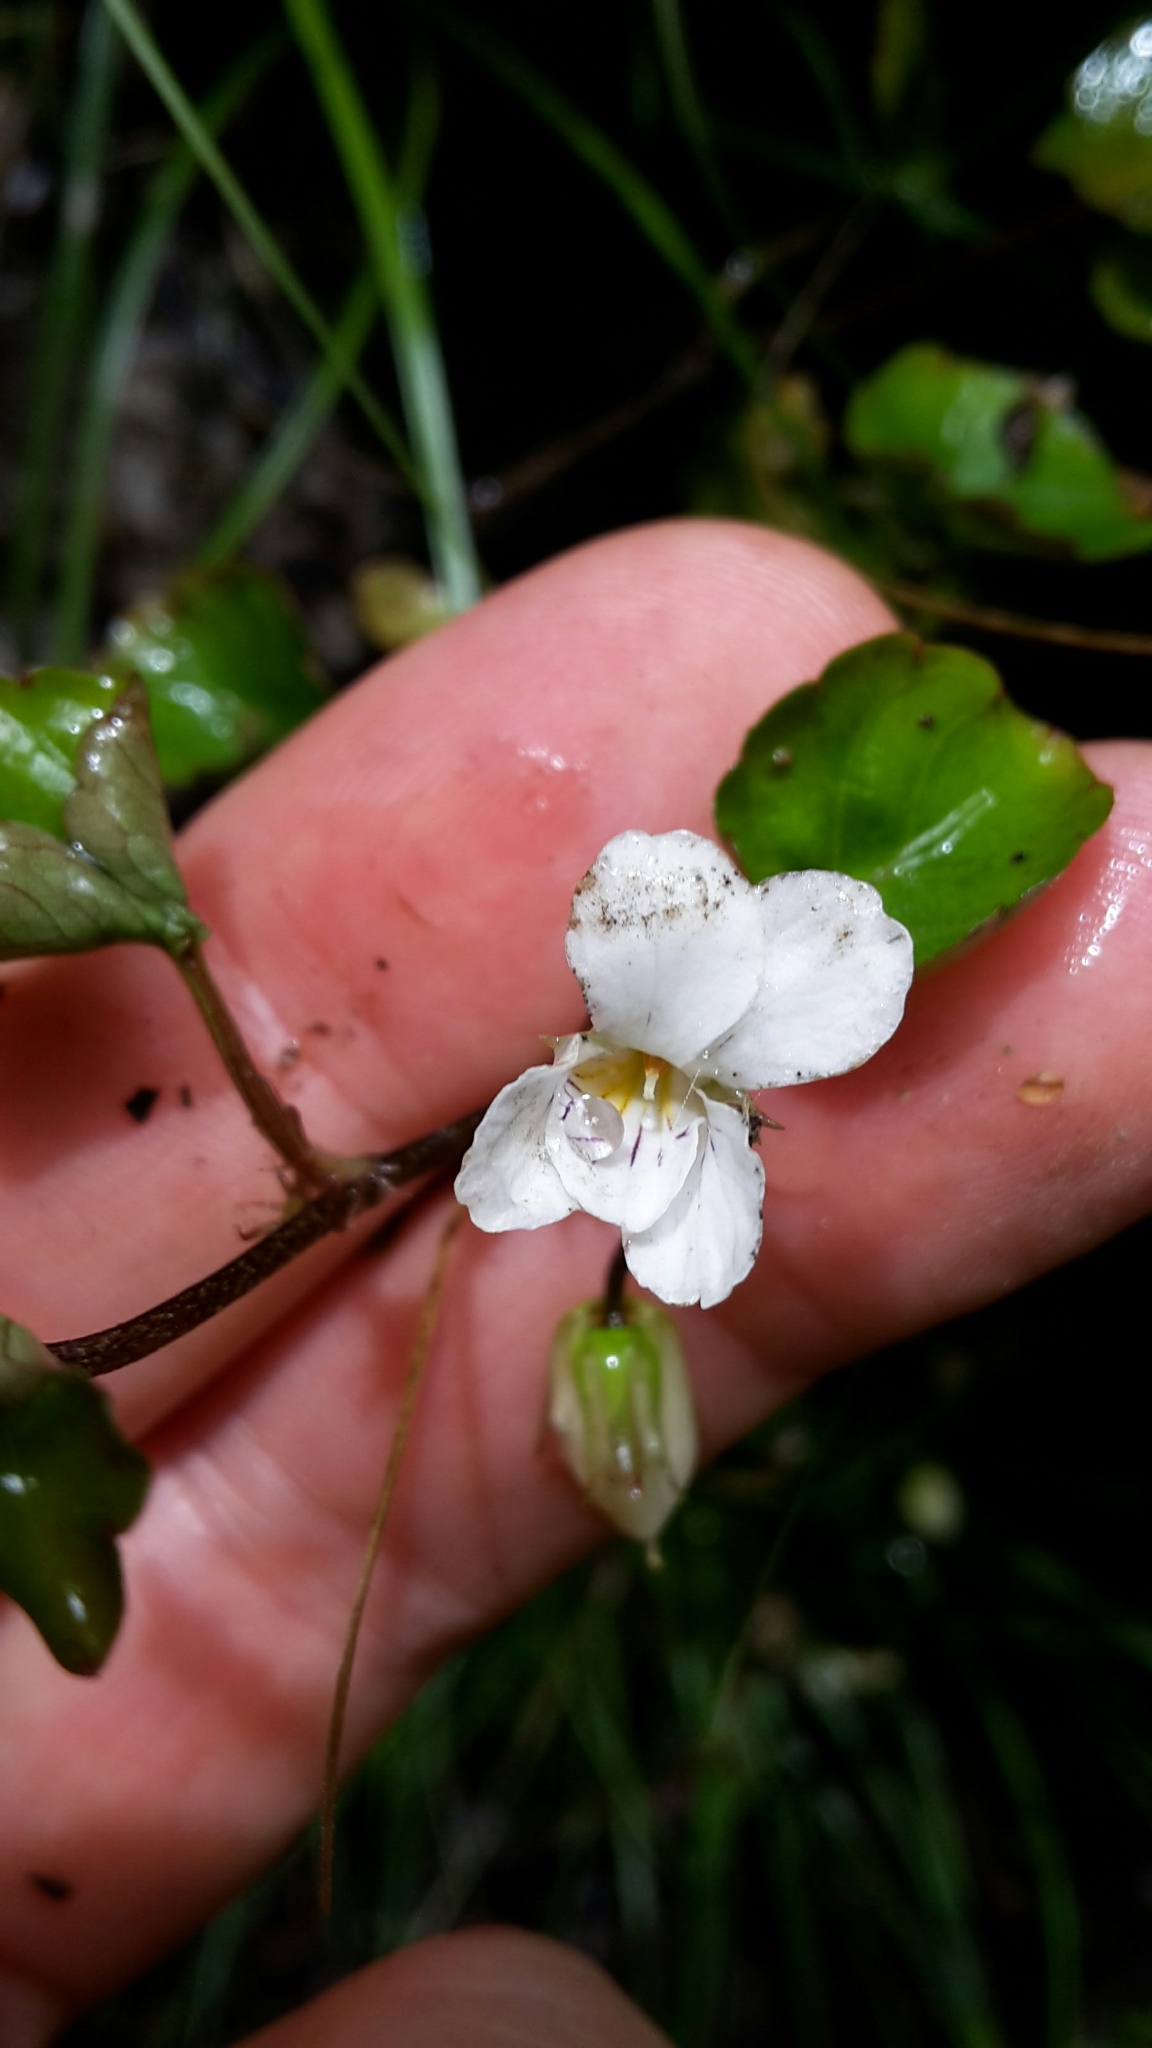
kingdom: Plantae
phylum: Tracheophyta
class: Magnoliopsida
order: Malpighiales
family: Violaceae
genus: Viola
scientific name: Viola filicaulis
